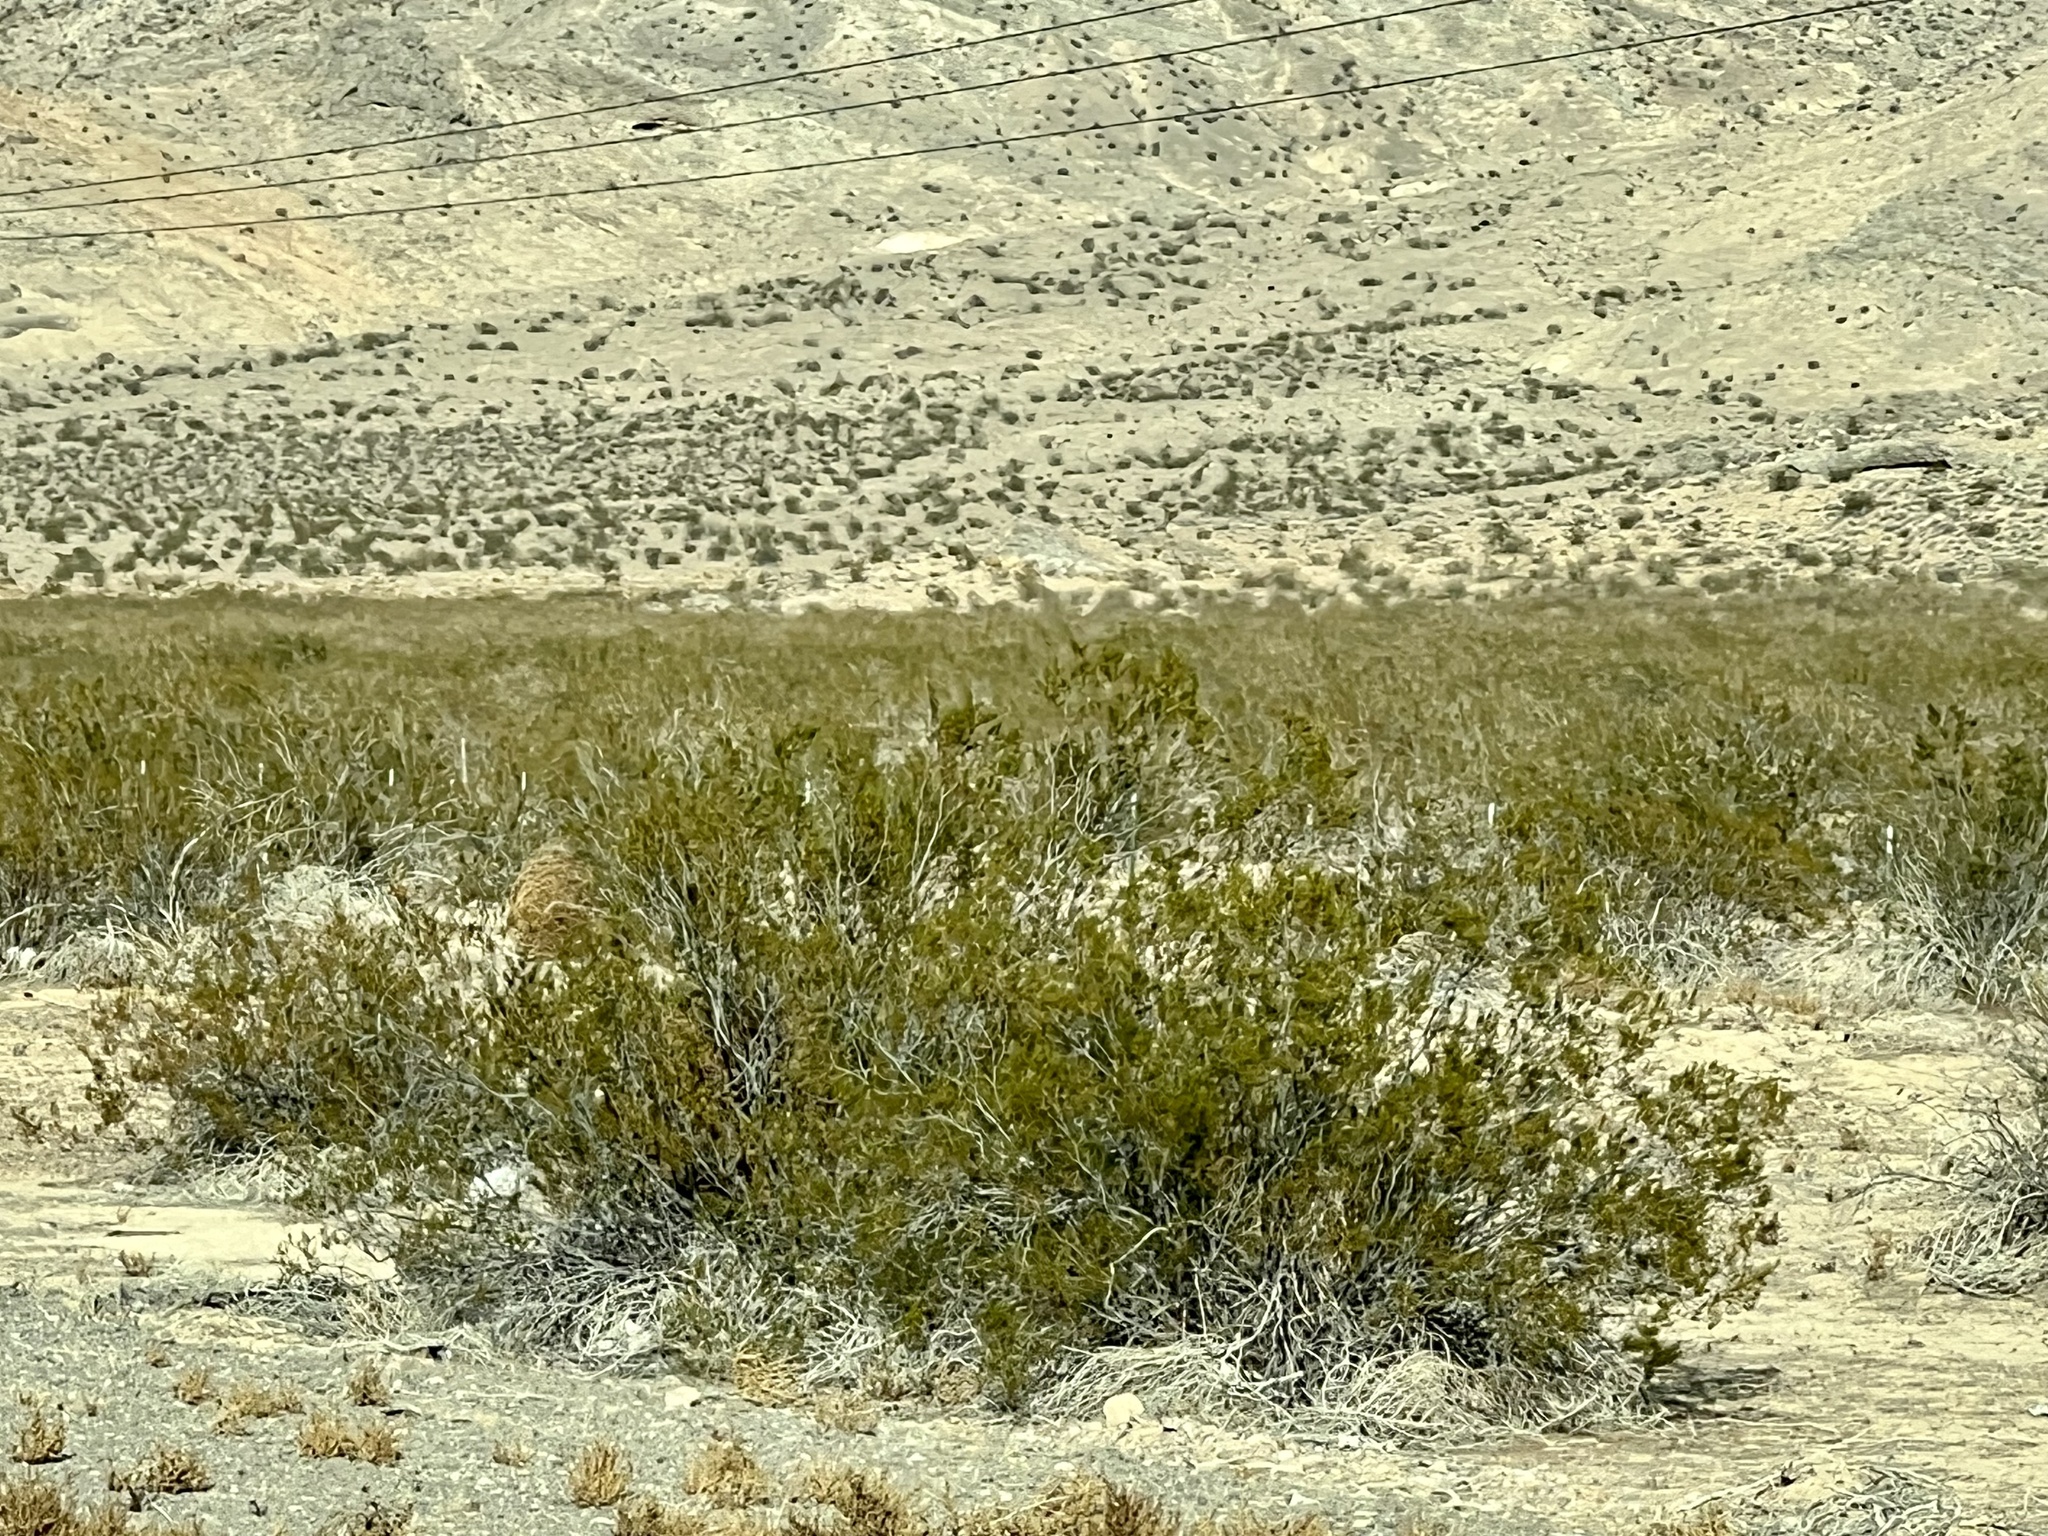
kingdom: Plantae
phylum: Tracheophyta
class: Magnoliopsida
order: Zygophyllales
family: Zygophyllaceae
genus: Larrea
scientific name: Larrea tridentata
